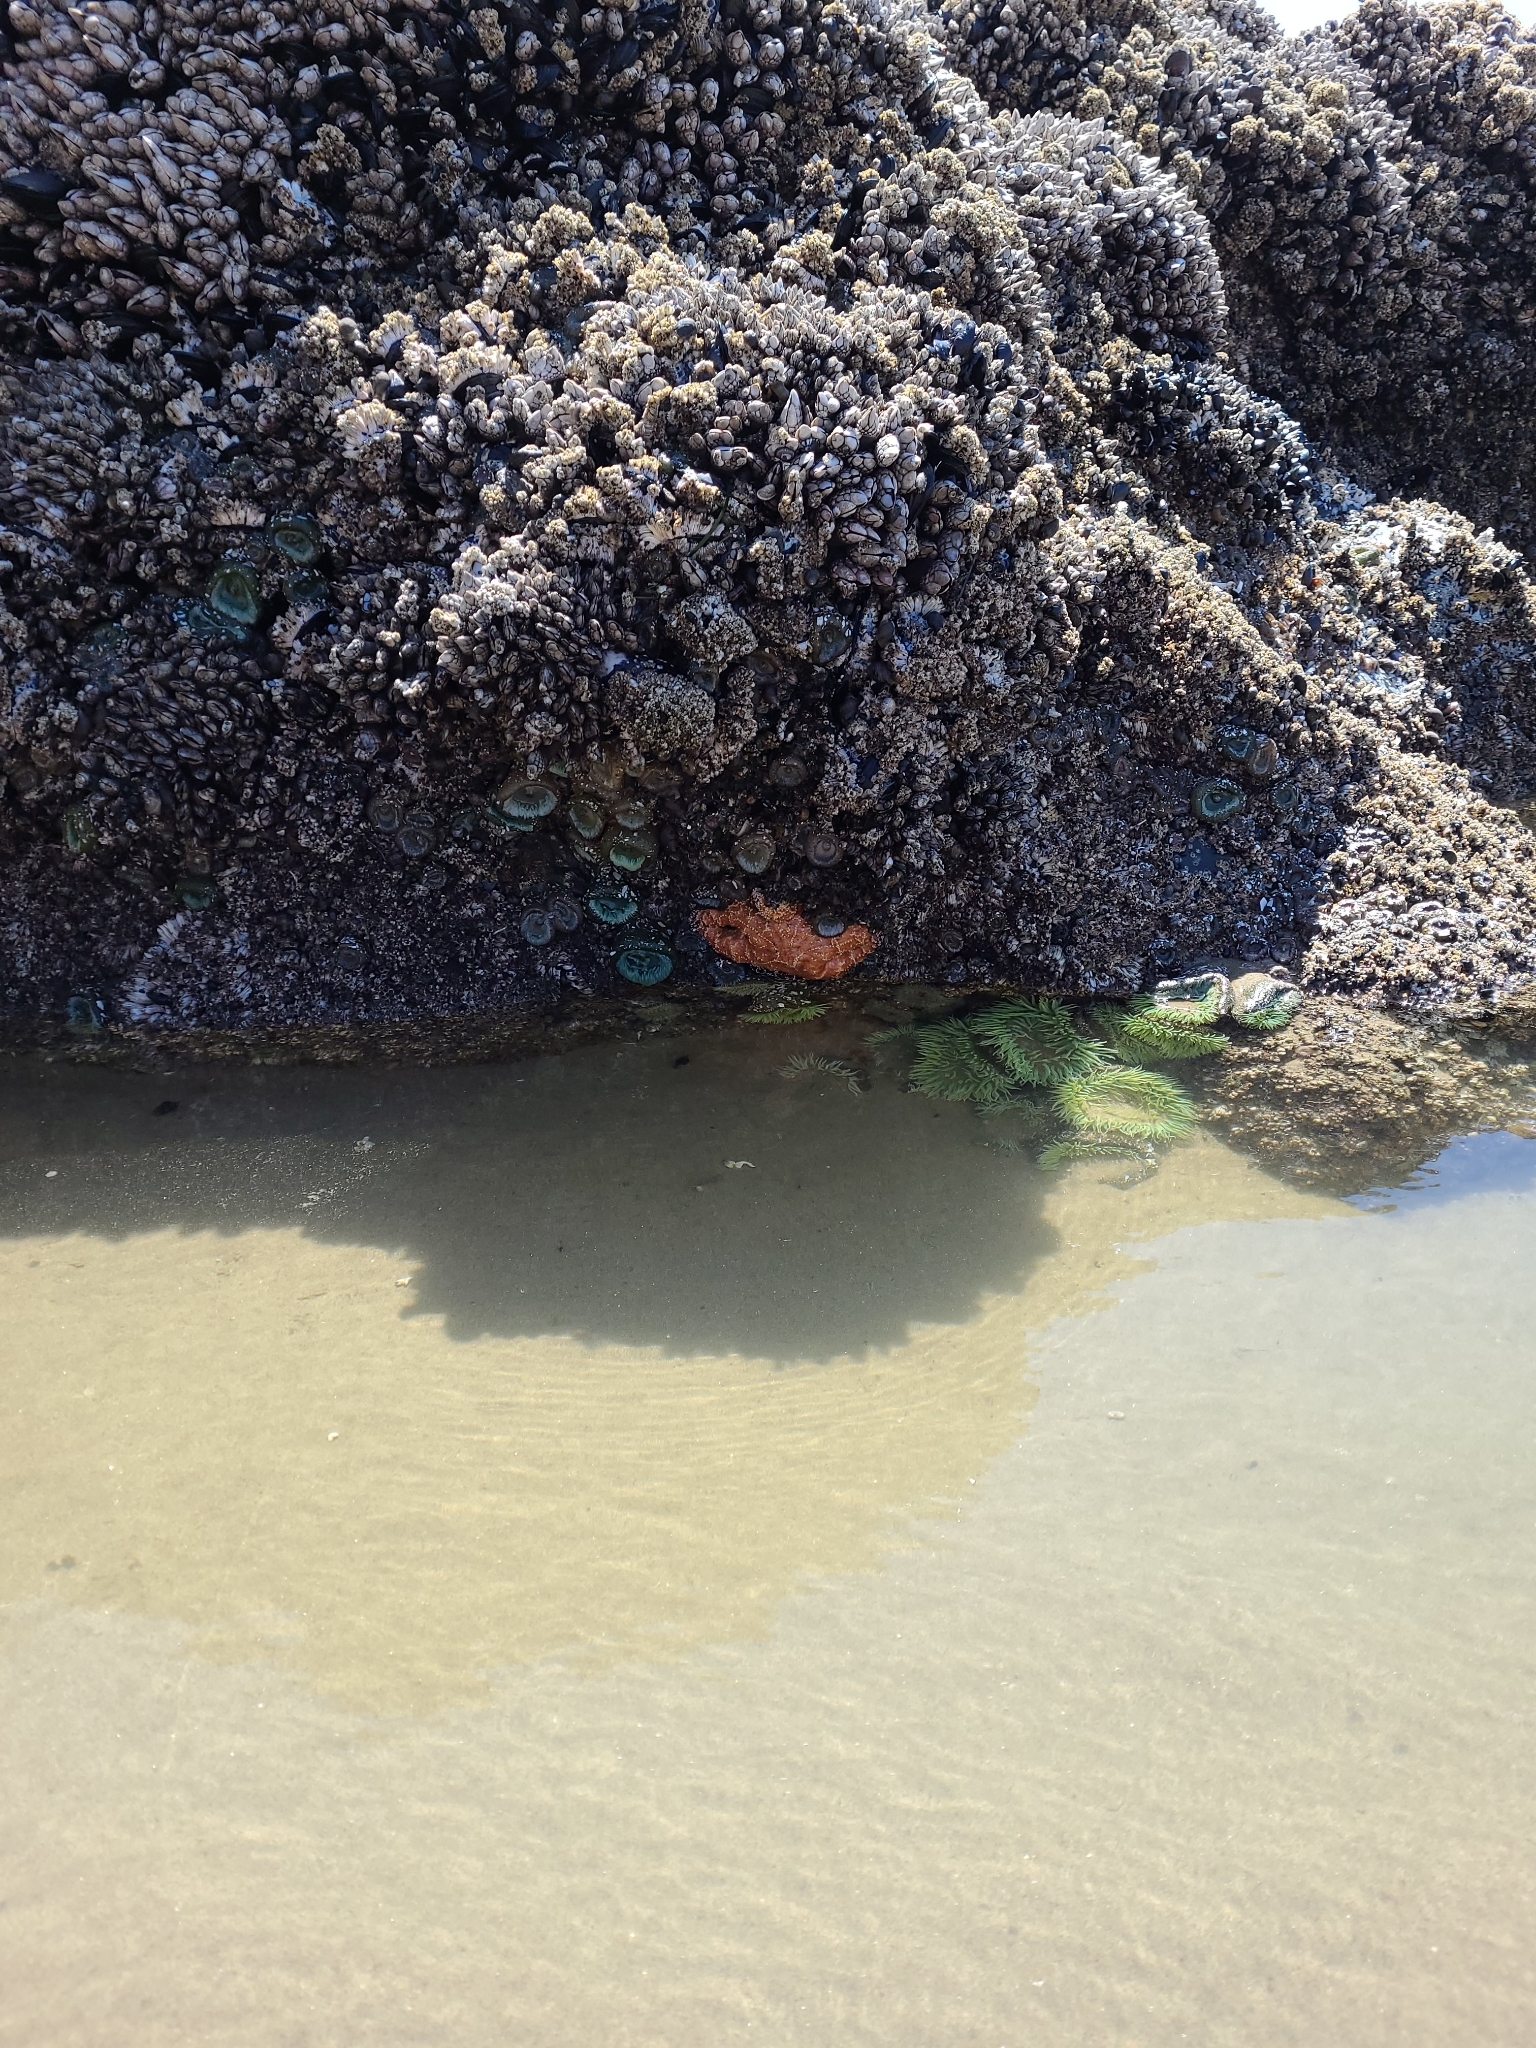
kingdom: Animalia
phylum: Echinodermata
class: Asteroidea
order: Forcipulatida
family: Asteriidae
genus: Pisaster
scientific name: Pisaster ochraceus
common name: Ochre stars
